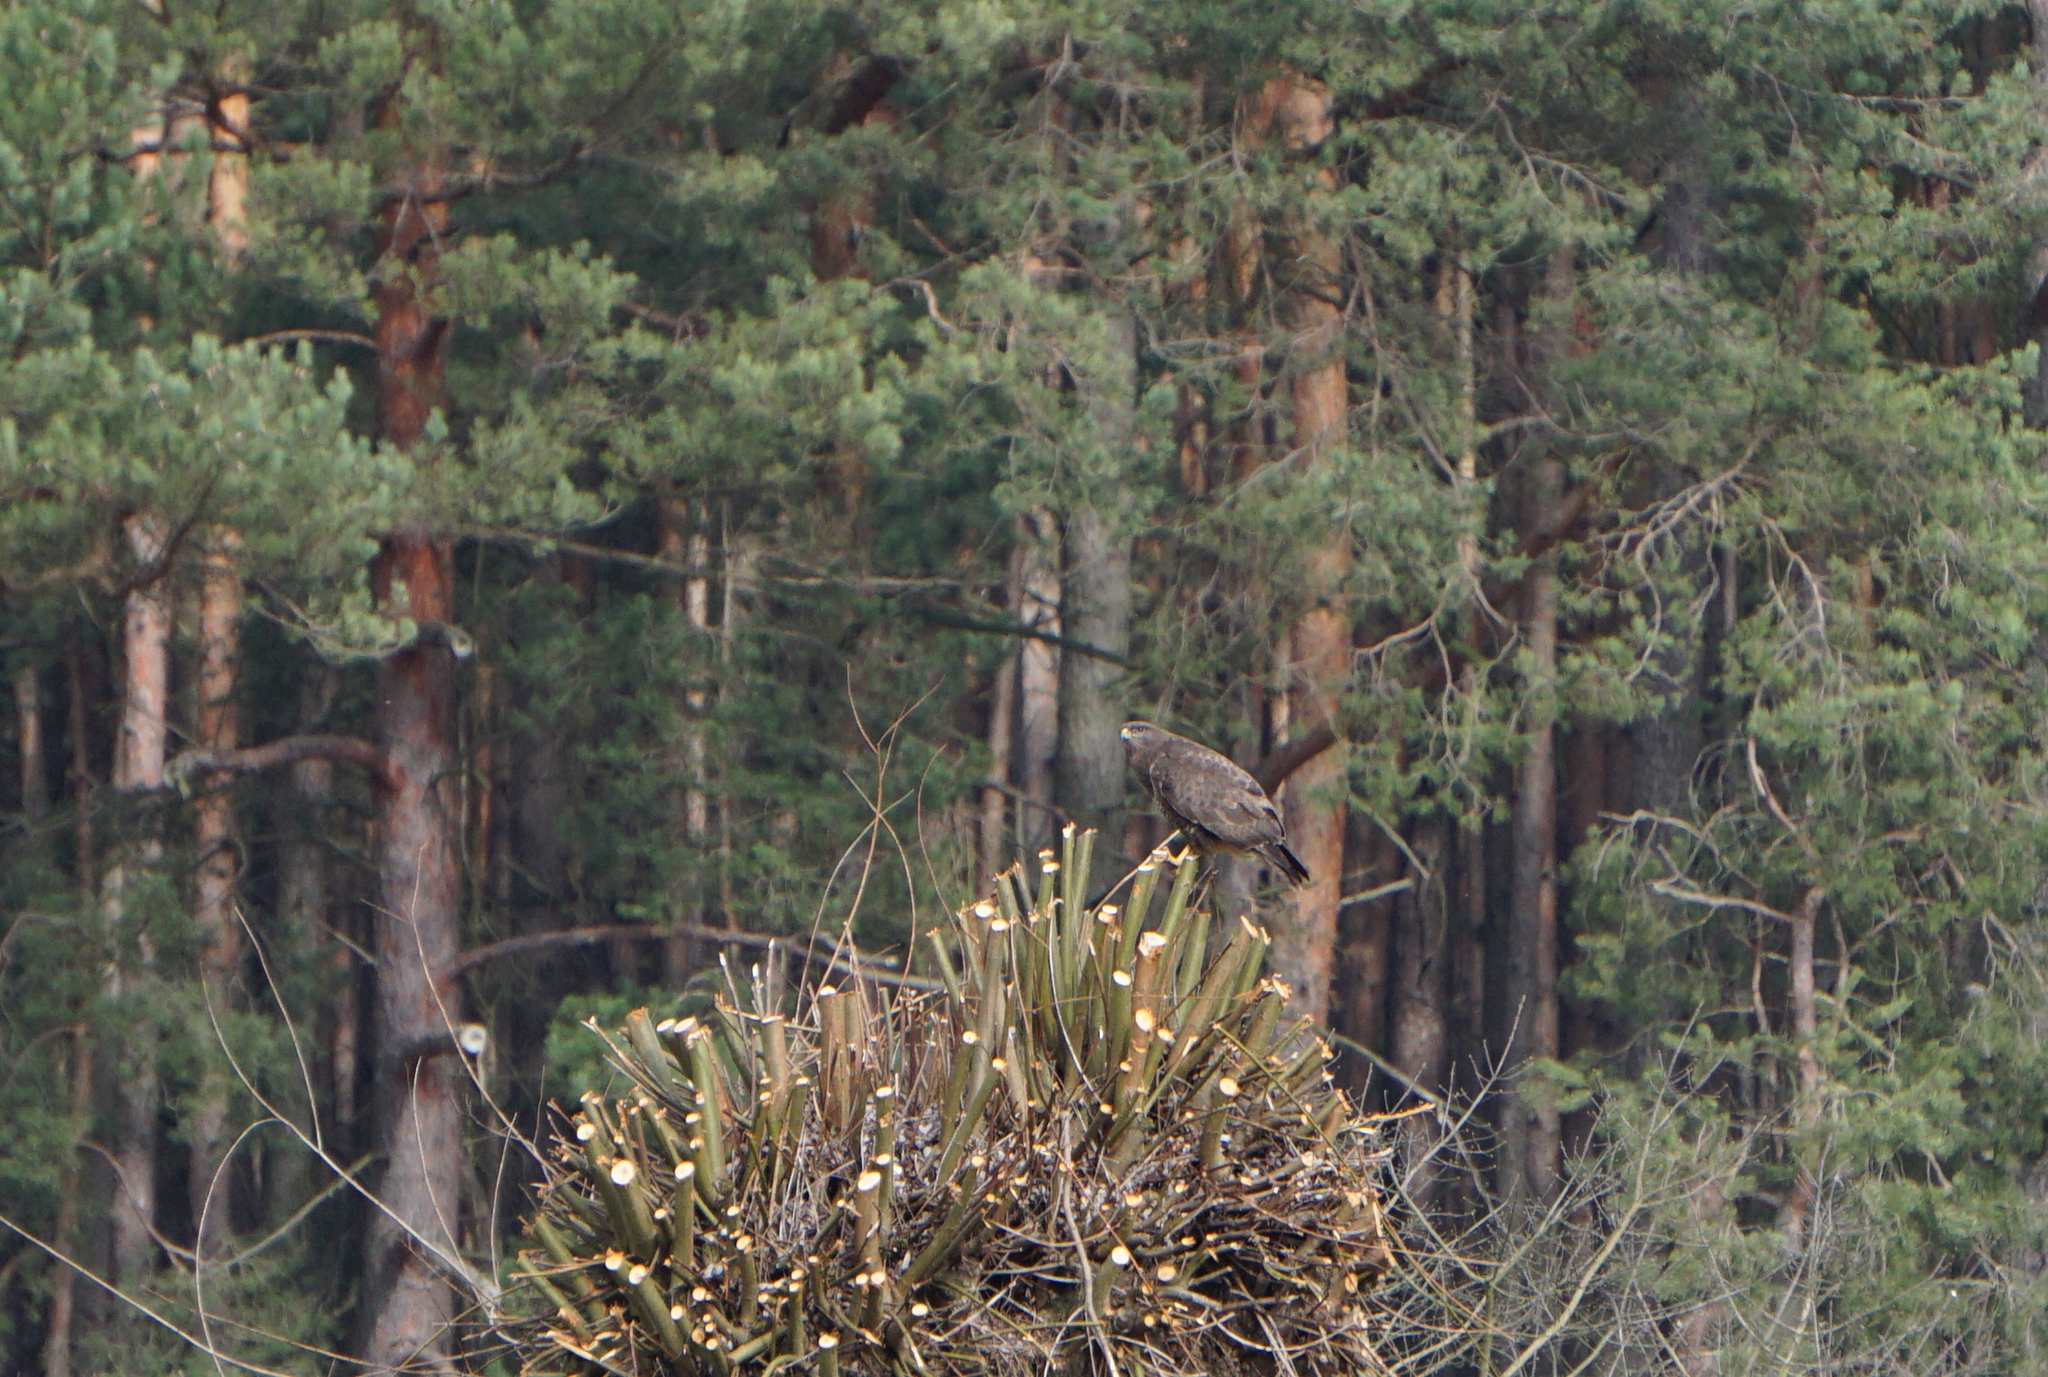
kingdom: Animalia
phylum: Chordata
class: Aves
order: Accipitriformes
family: Accipitridae
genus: Buteo
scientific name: Buteo buteo
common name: Common buzzard
